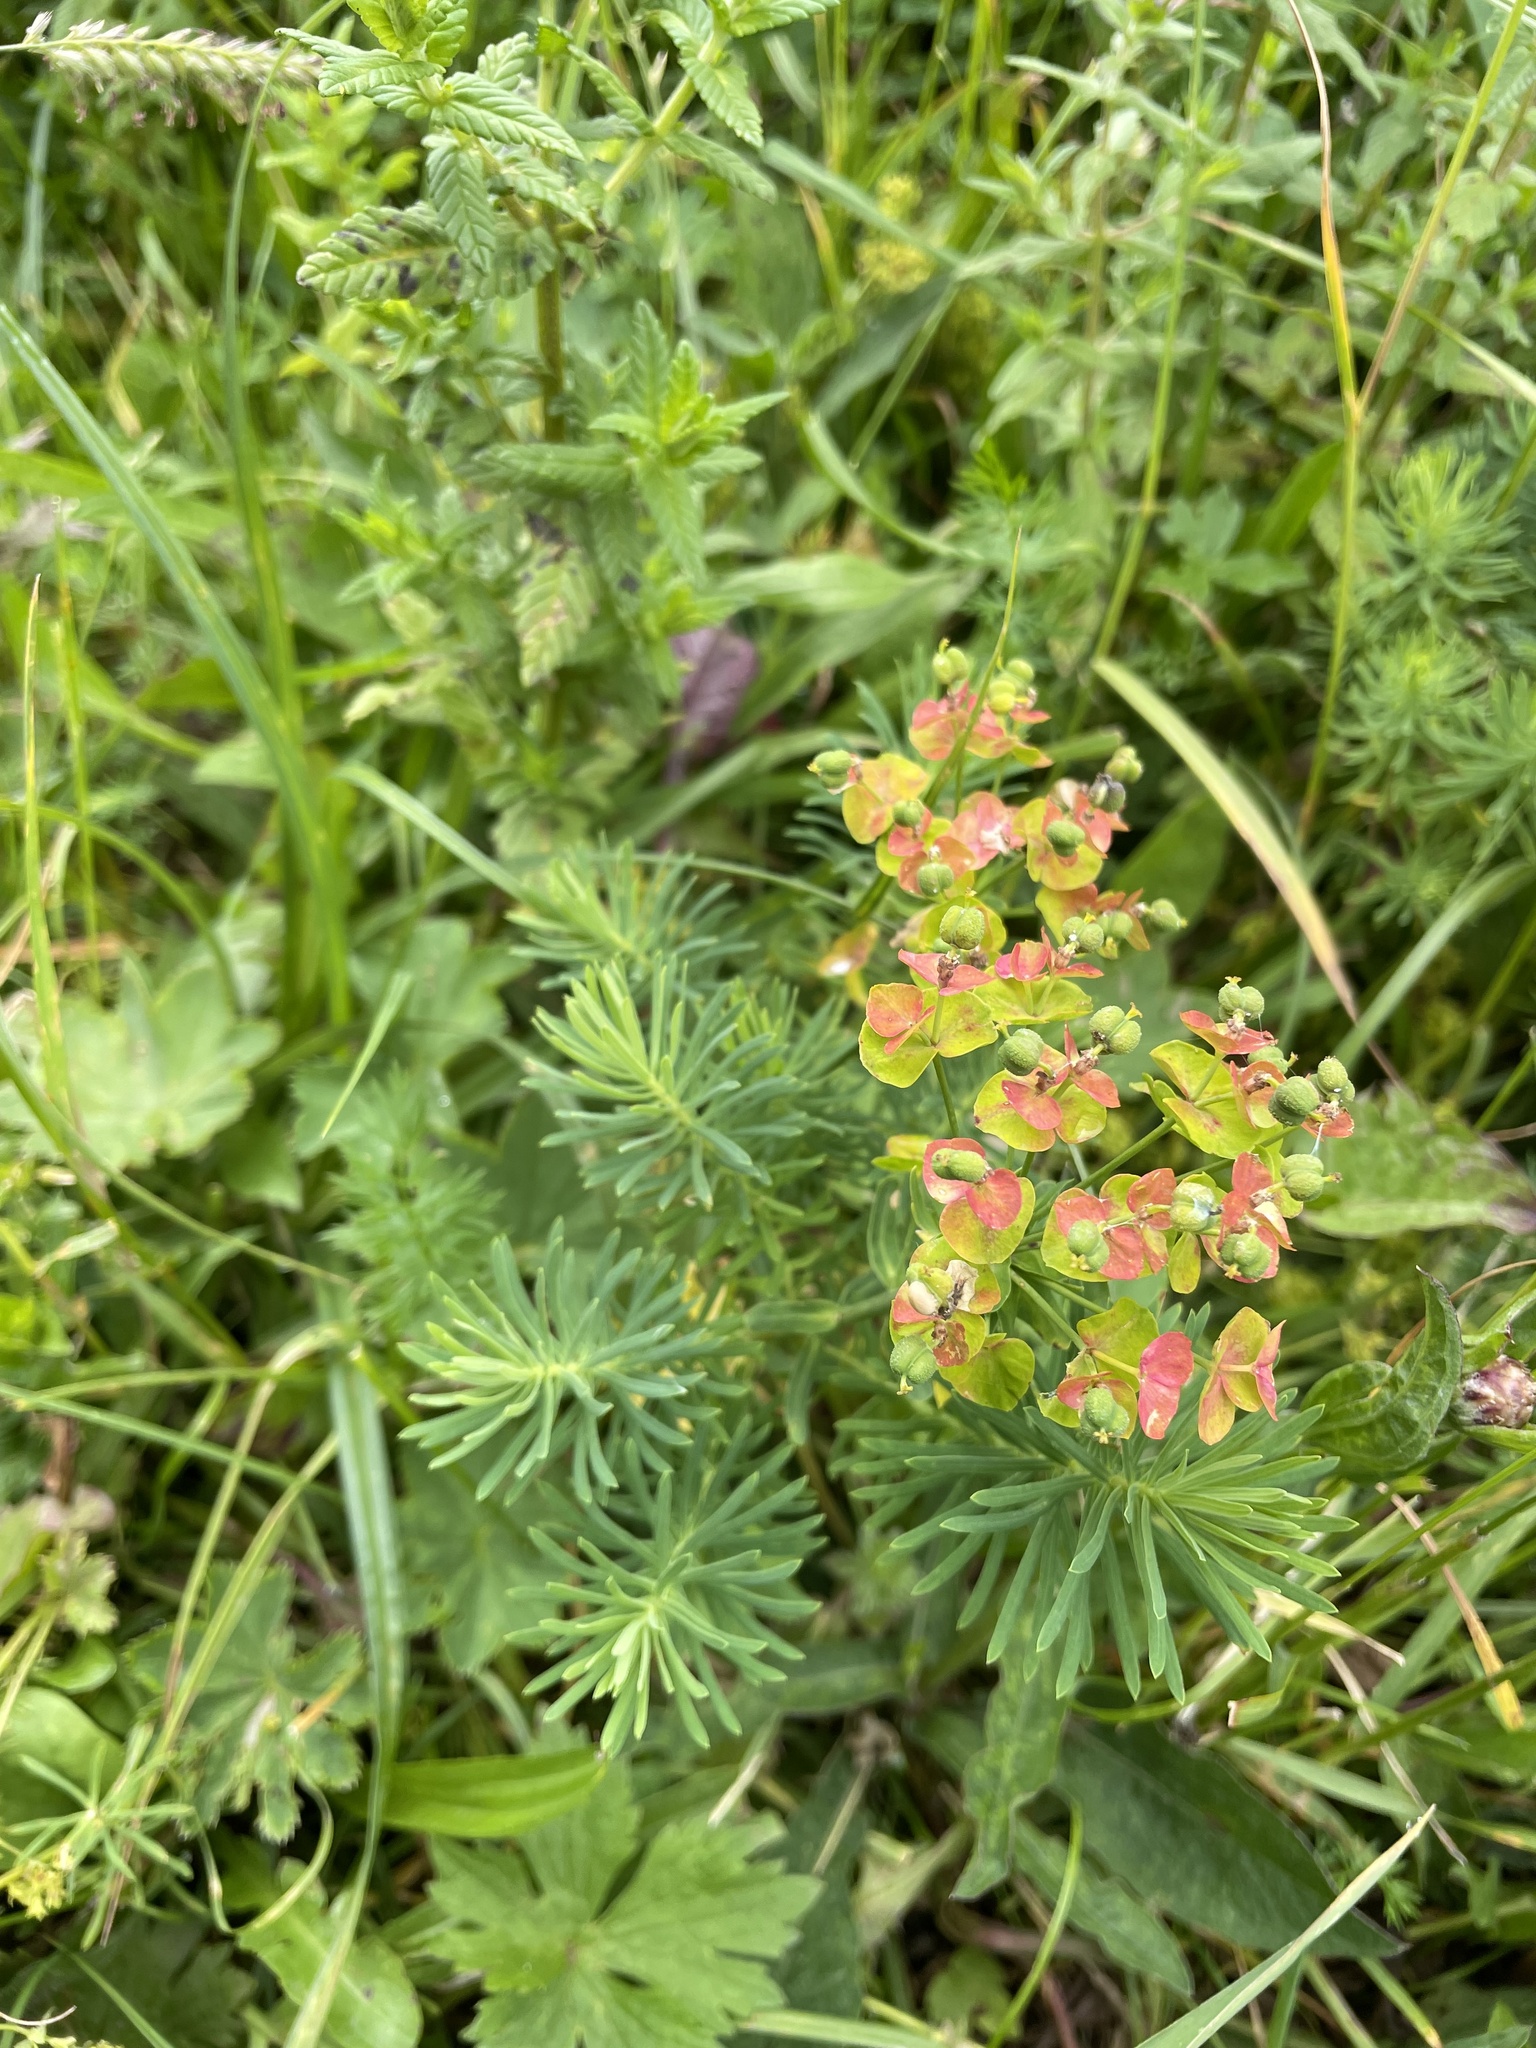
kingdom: Plantae
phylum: Tracheophyta
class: Magnoliopsida
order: Malpighiales
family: Euphorbiaceae
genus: Euphorbia
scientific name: Euphorbia cyparissias
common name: Cypress spurge
